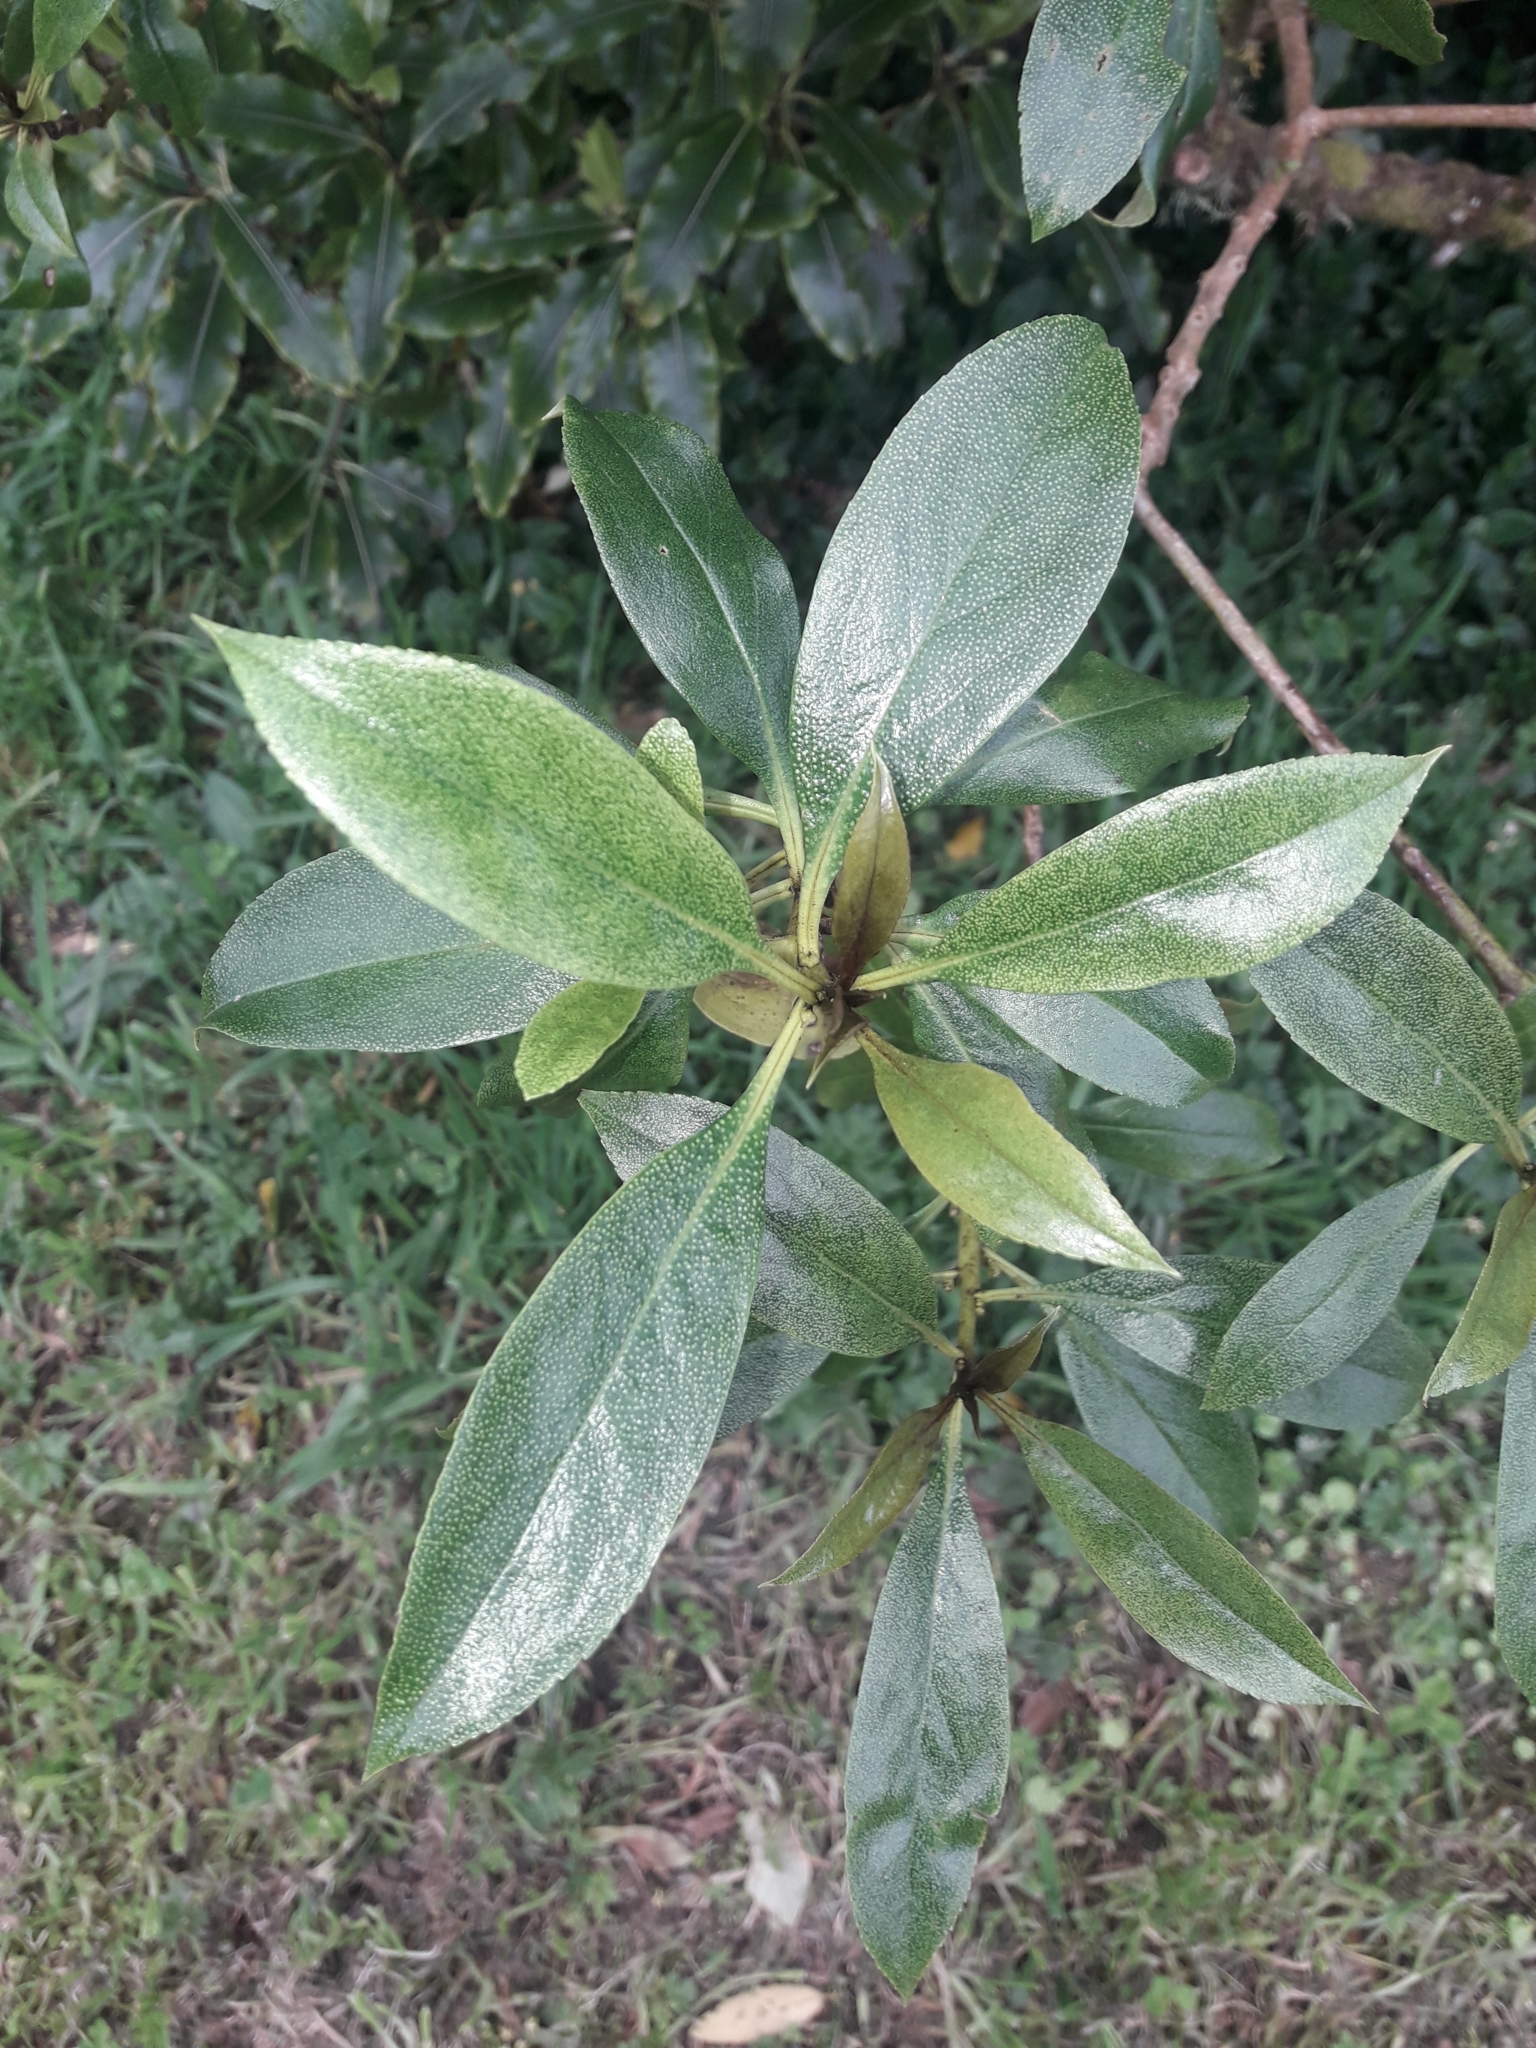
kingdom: Plantae
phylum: Tracheophyta
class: Magnoliopsida
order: Lamiales
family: Scrophulariaceae
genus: Myoporum
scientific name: Myoporum laetum
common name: Ngaio tree
